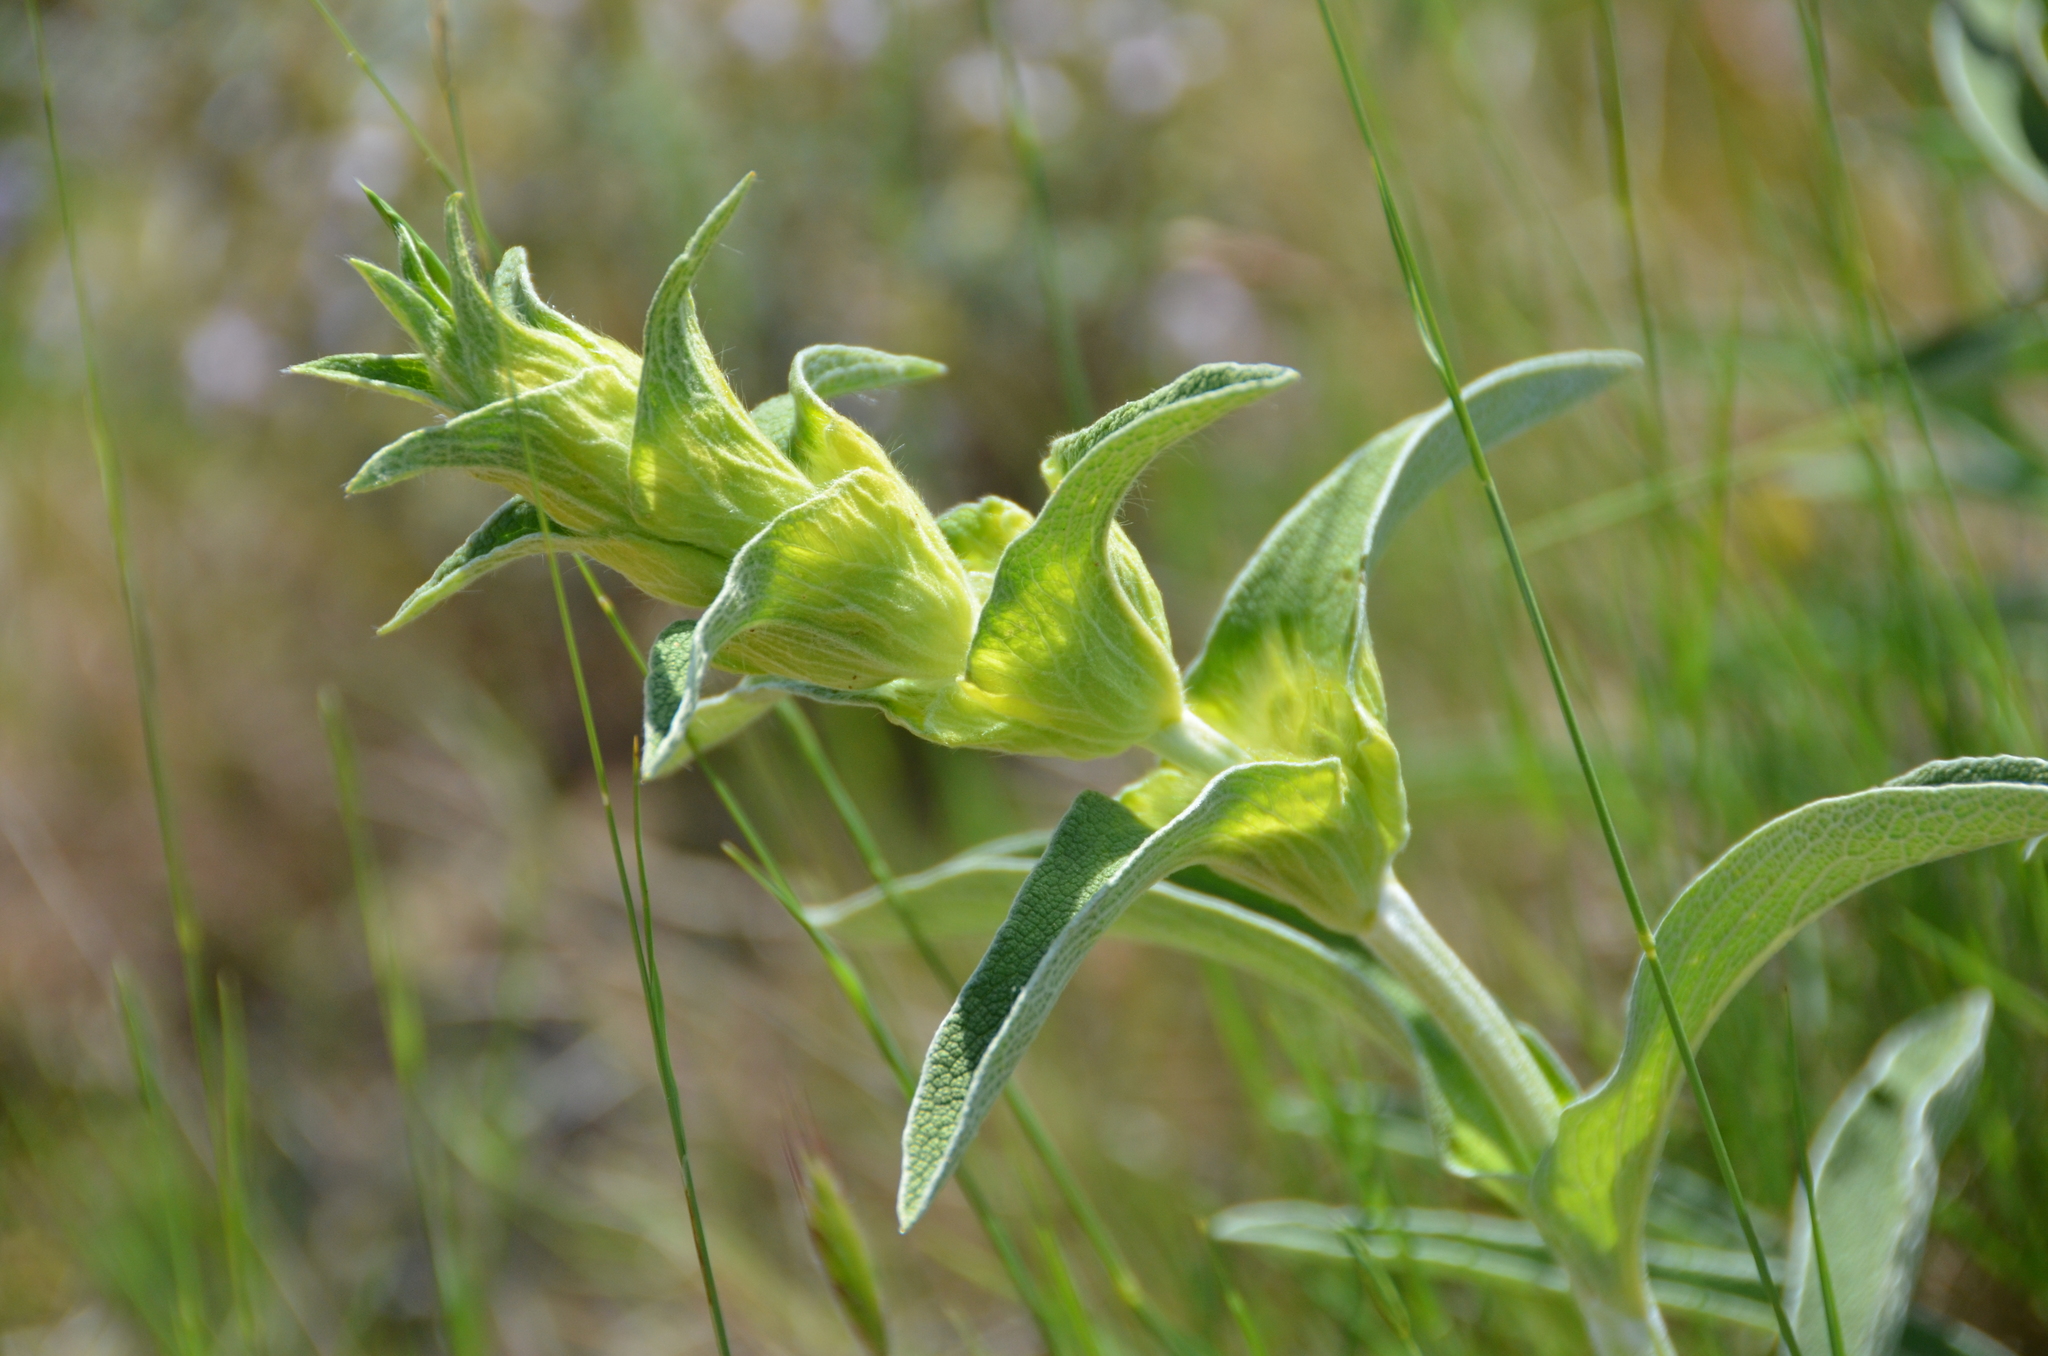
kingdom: Plantae
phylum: Tracheophyta
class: Magnoliopsida
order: Lamiales
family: Lamiaceae
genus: Phlomis
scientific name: Phlomis lychnitis
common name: Lampwickplant
